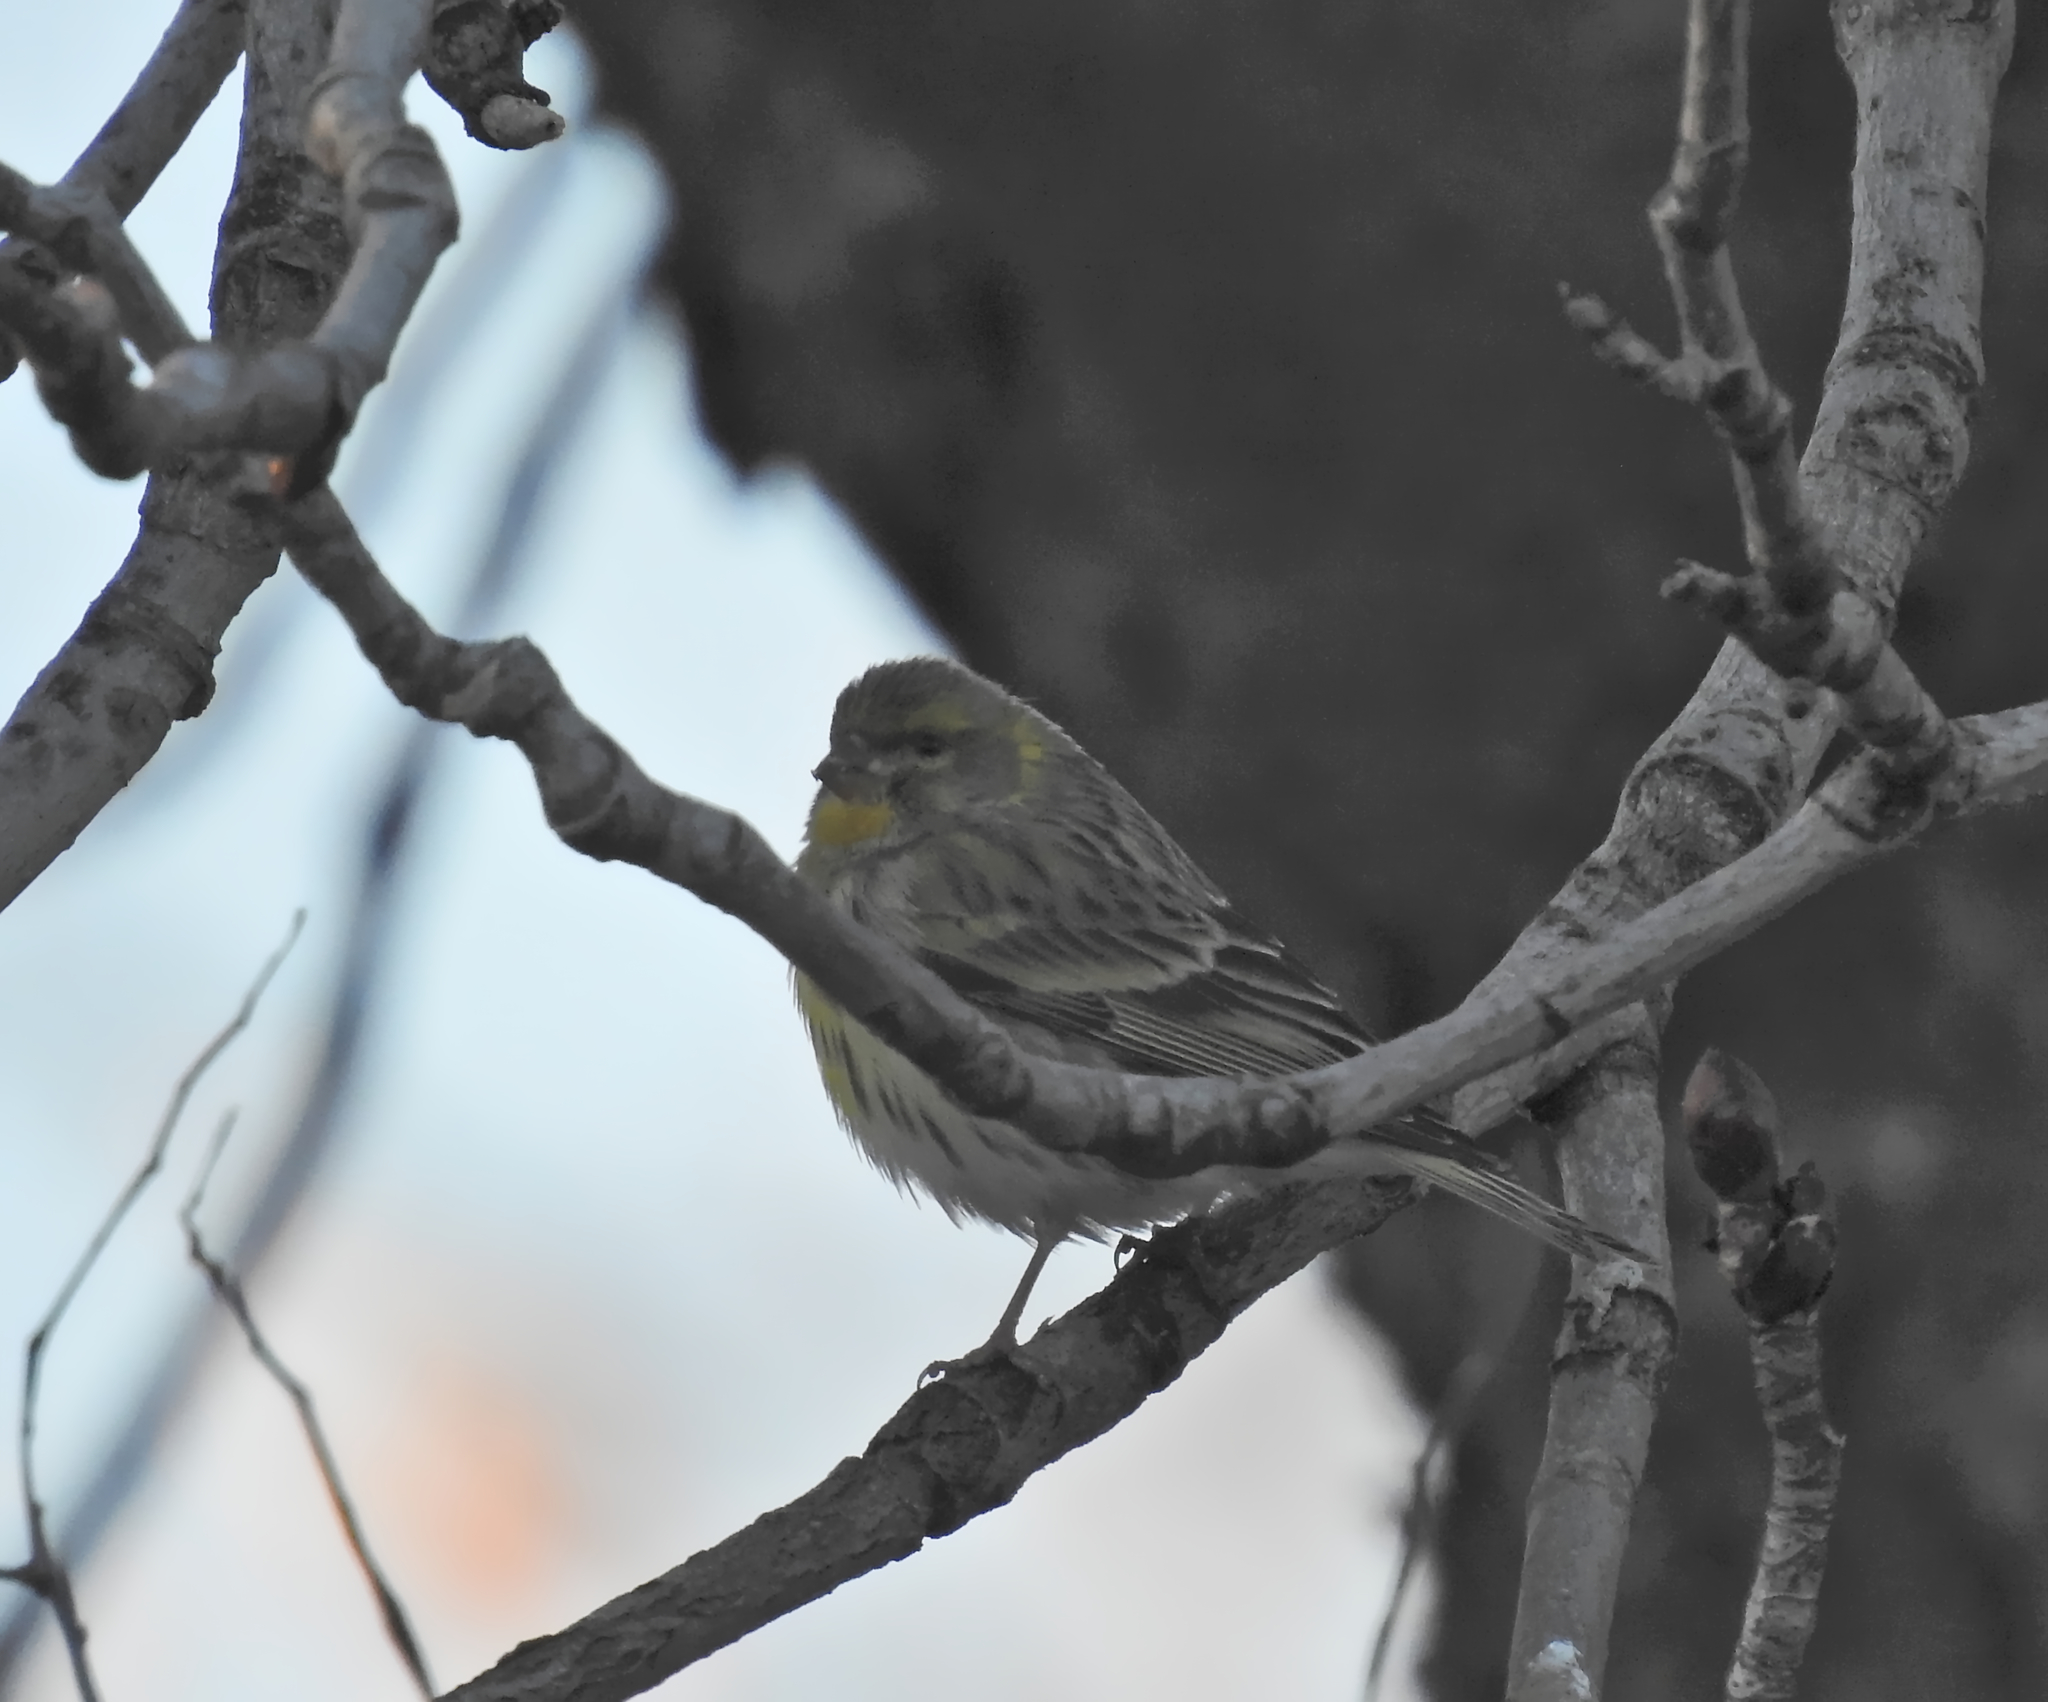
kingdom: Animalia
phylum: Chordata
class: Aves
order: Passeriformes
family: Fringillidae
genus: Serinus
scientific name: Serinus serinus
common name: European serin
